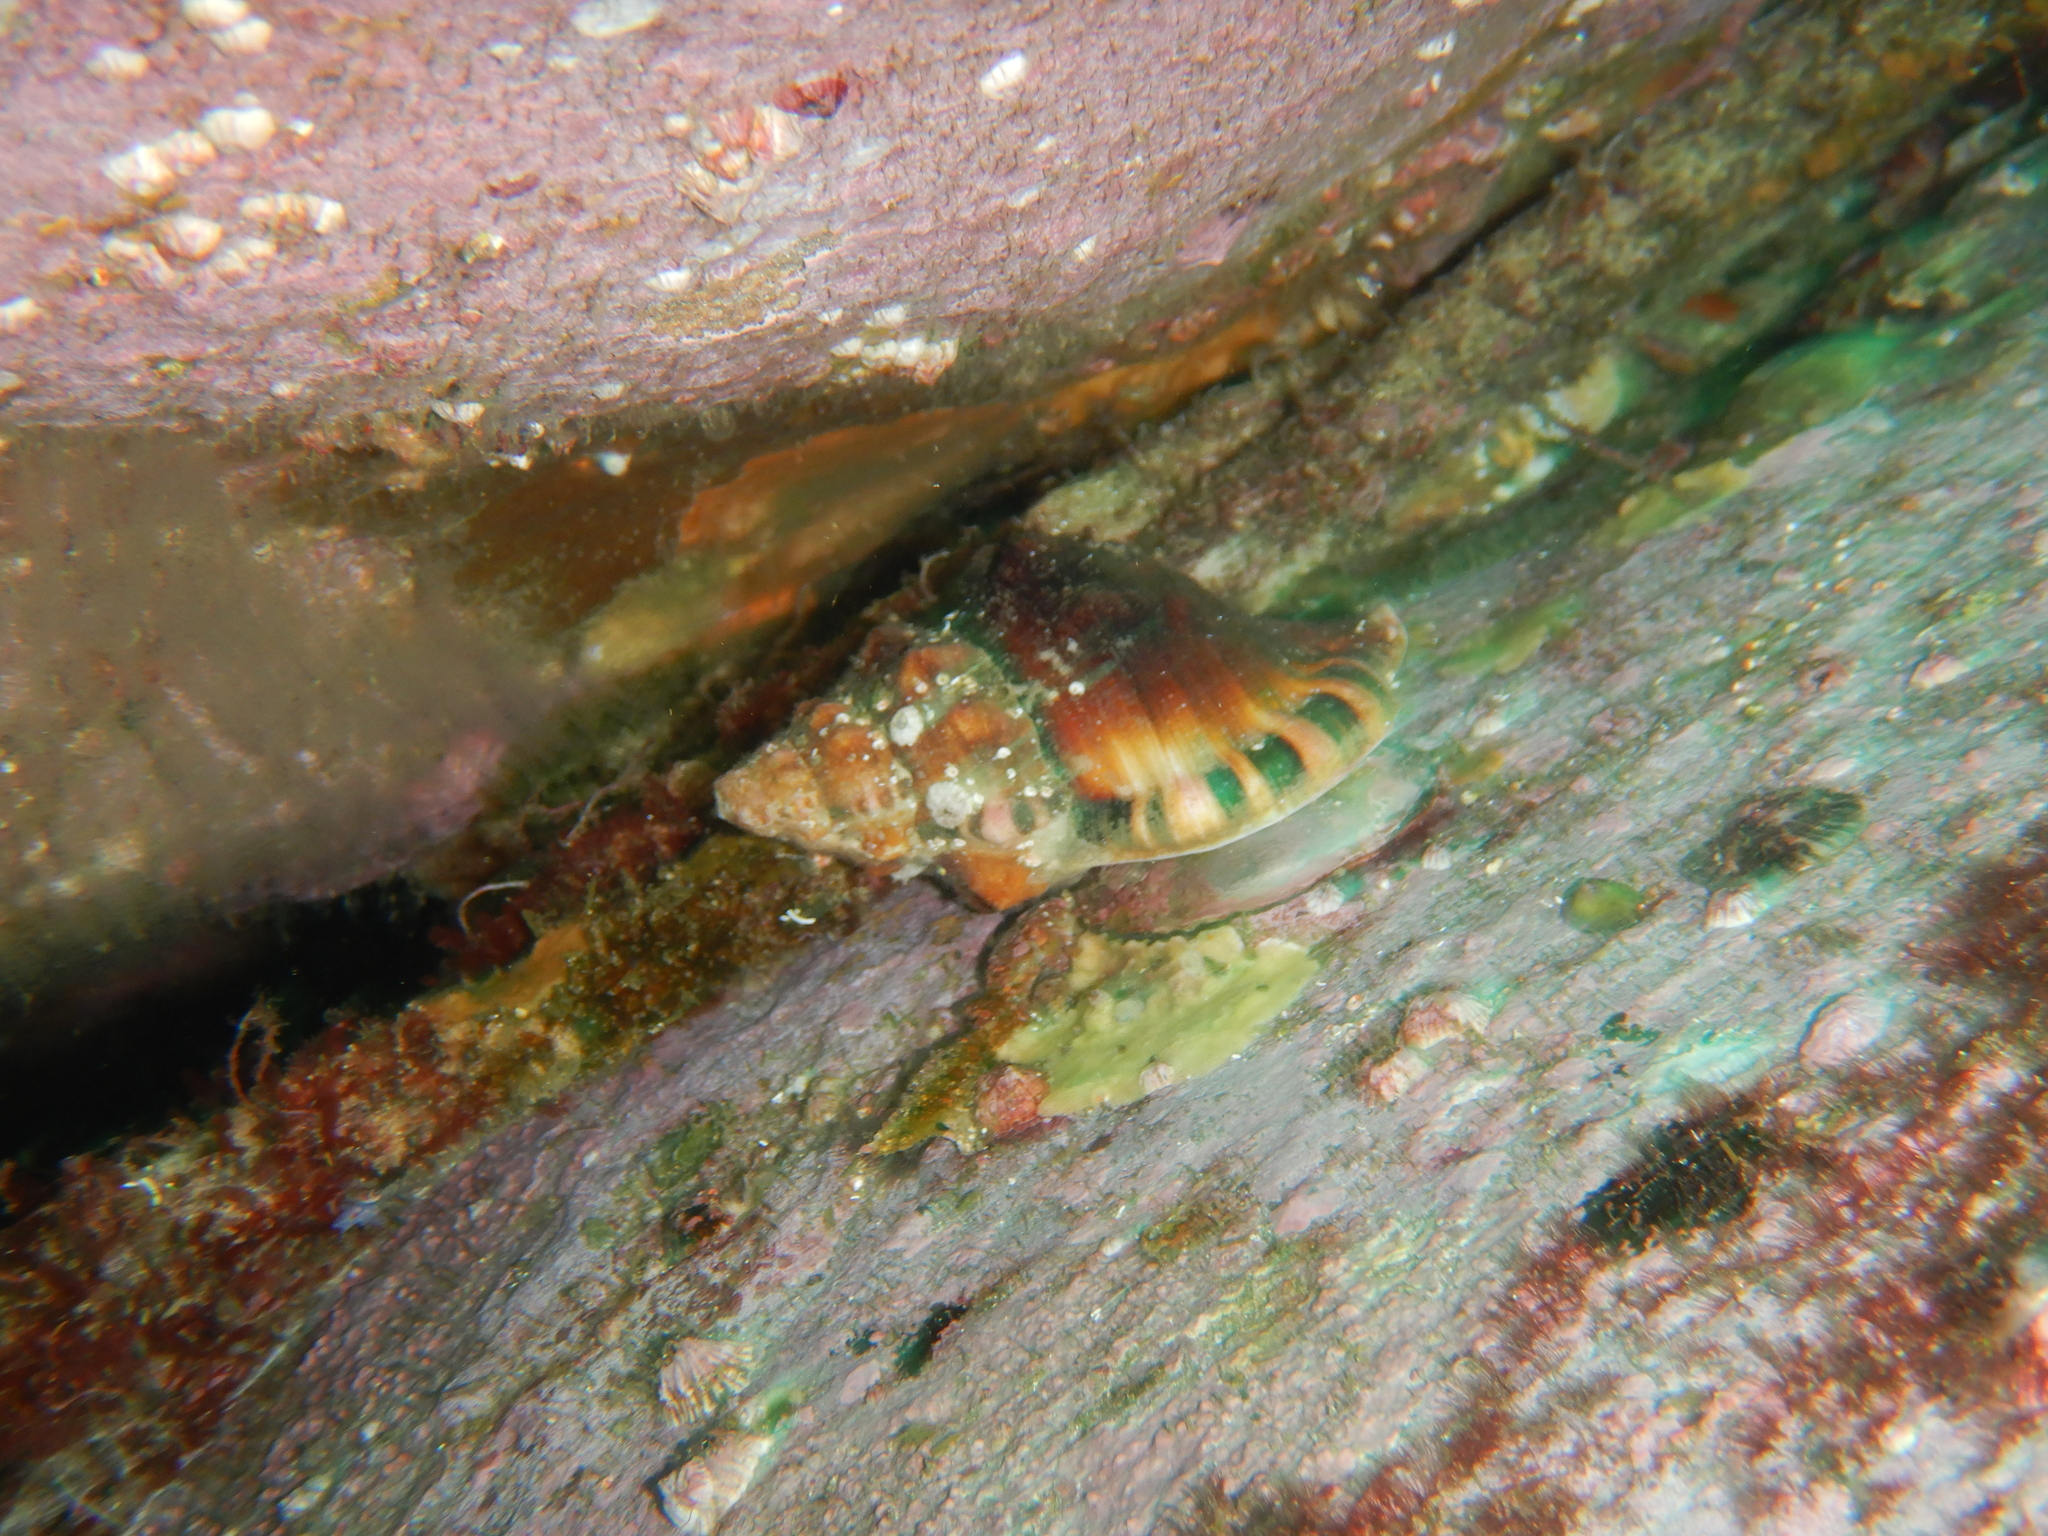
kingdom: Animalia
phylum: Mollusca
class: Gastropoda
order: Littorinimorpha
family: Ranellidae
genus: Ranella
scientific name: Ranella australasia
